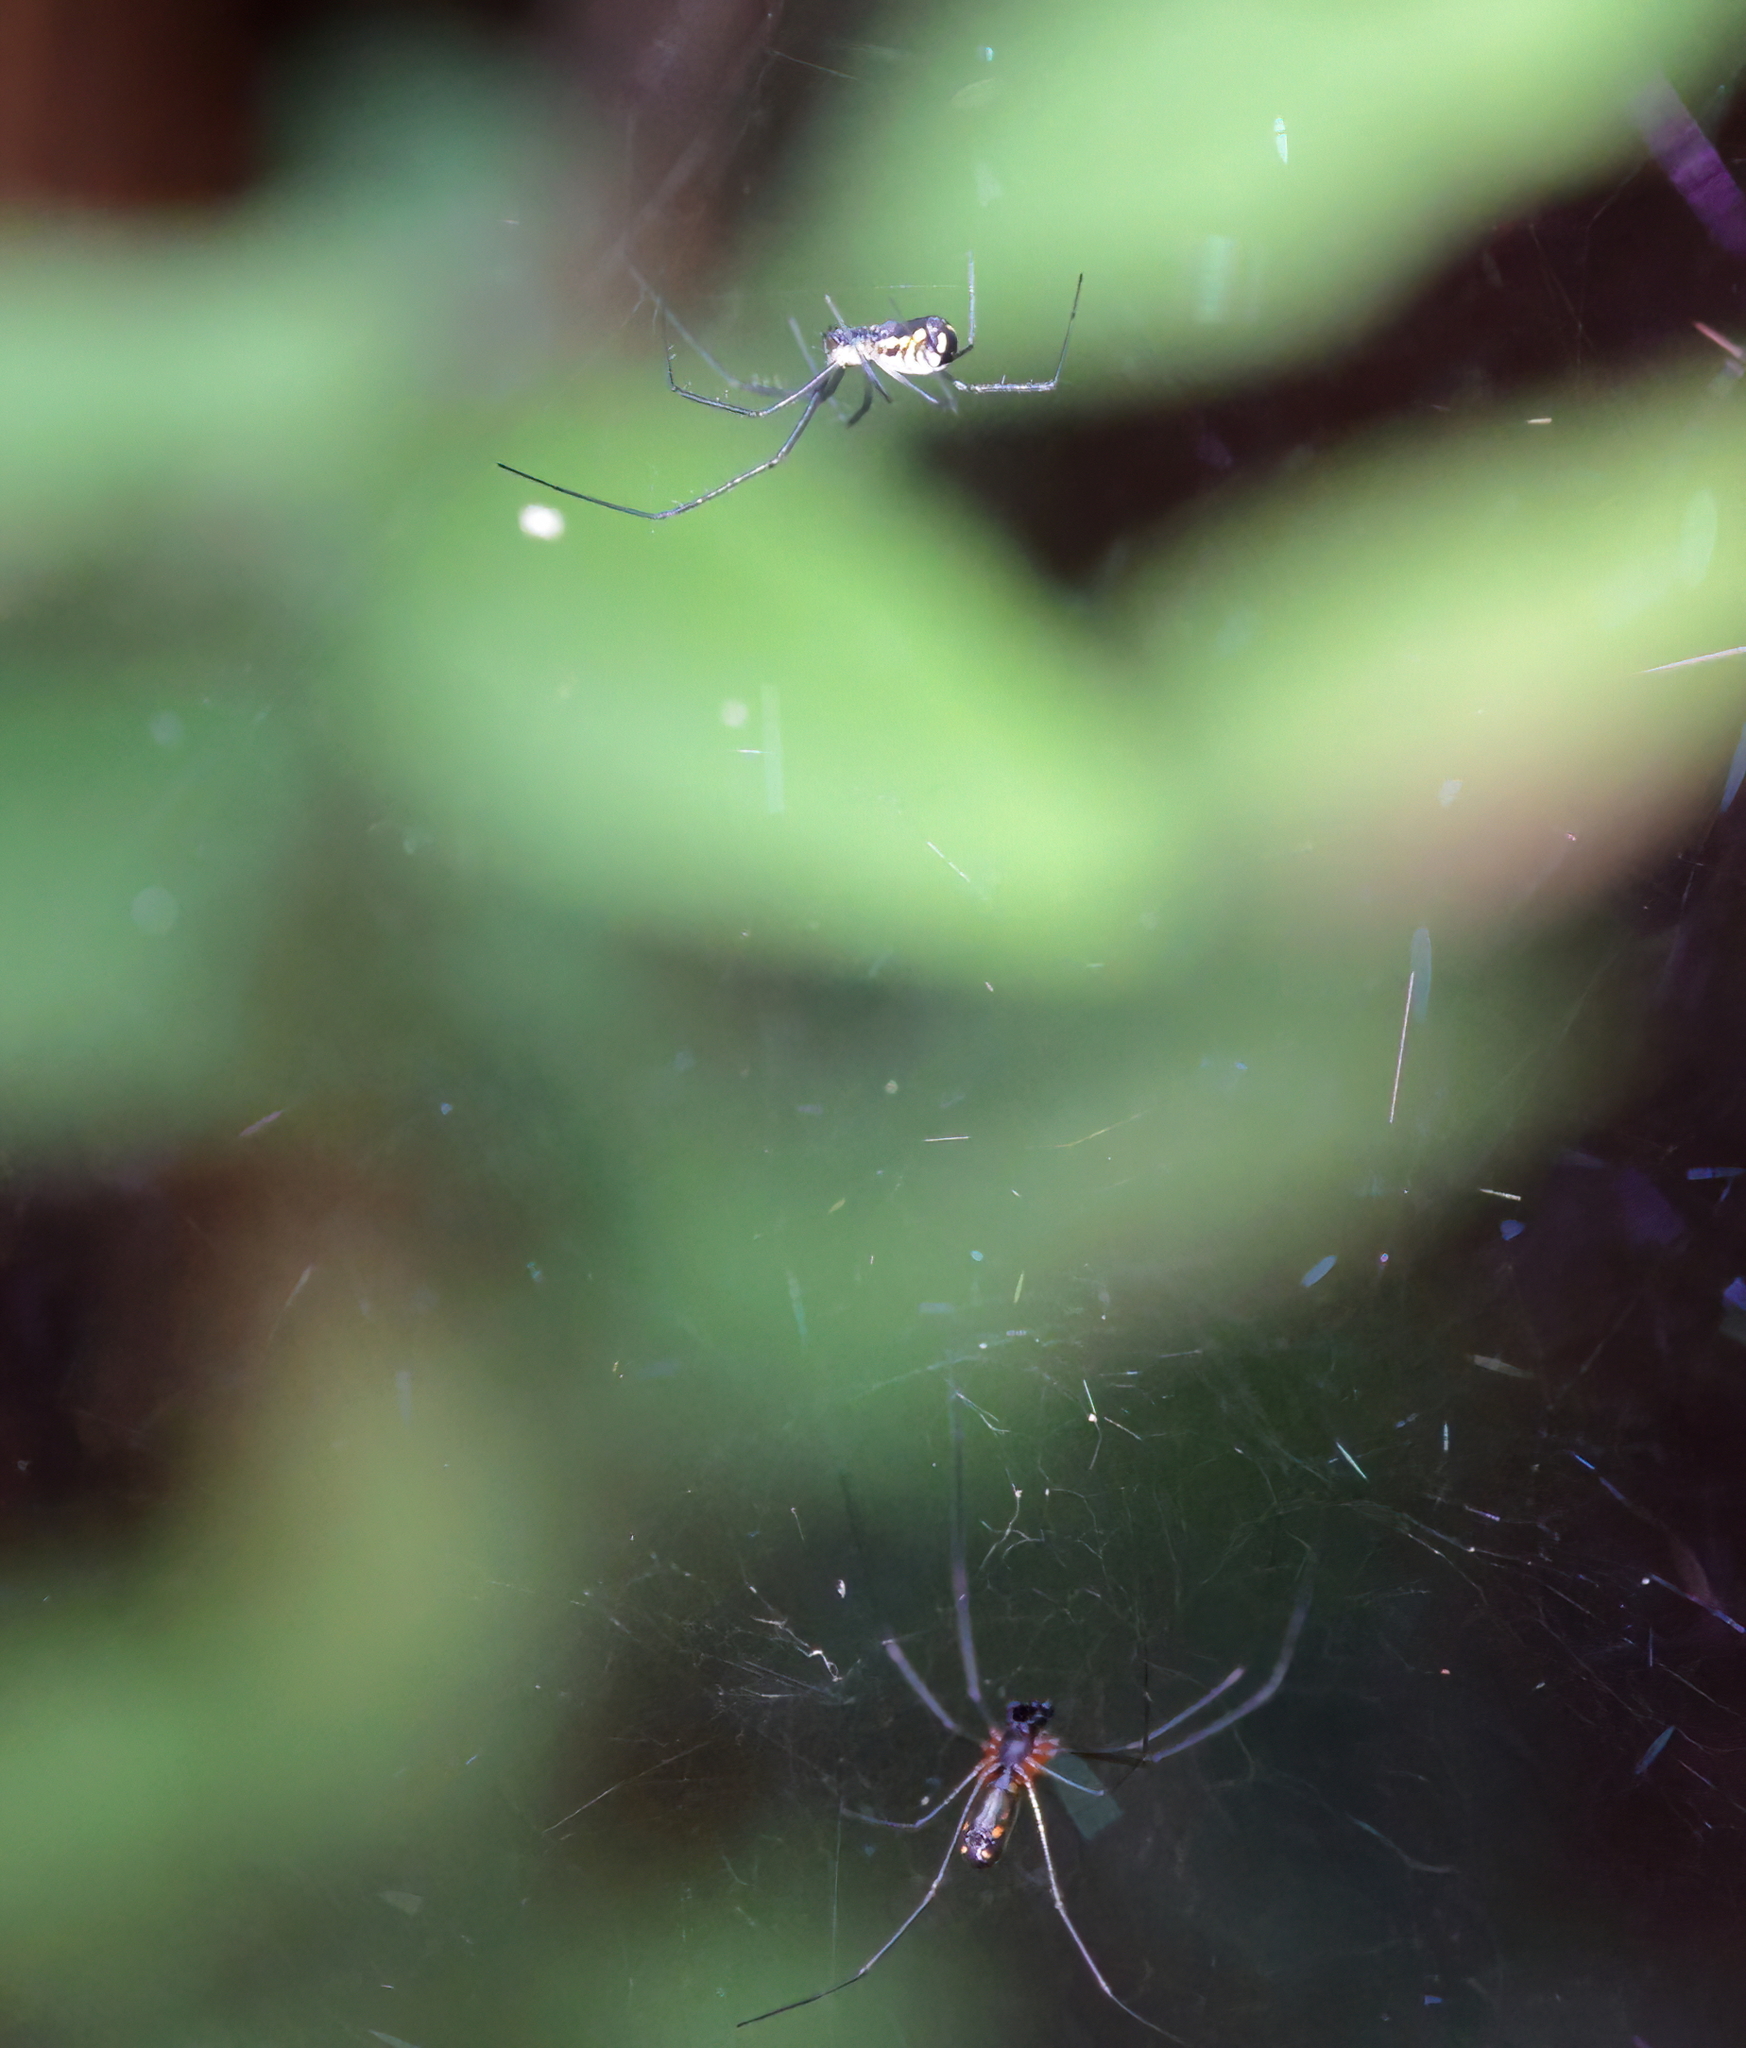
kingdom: Animalia
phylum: Arthropoda
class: Arachnida
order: Araneae
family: Linyphiidae
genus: Neriene
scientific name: Neriene radiata
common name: Filmy dome spider
